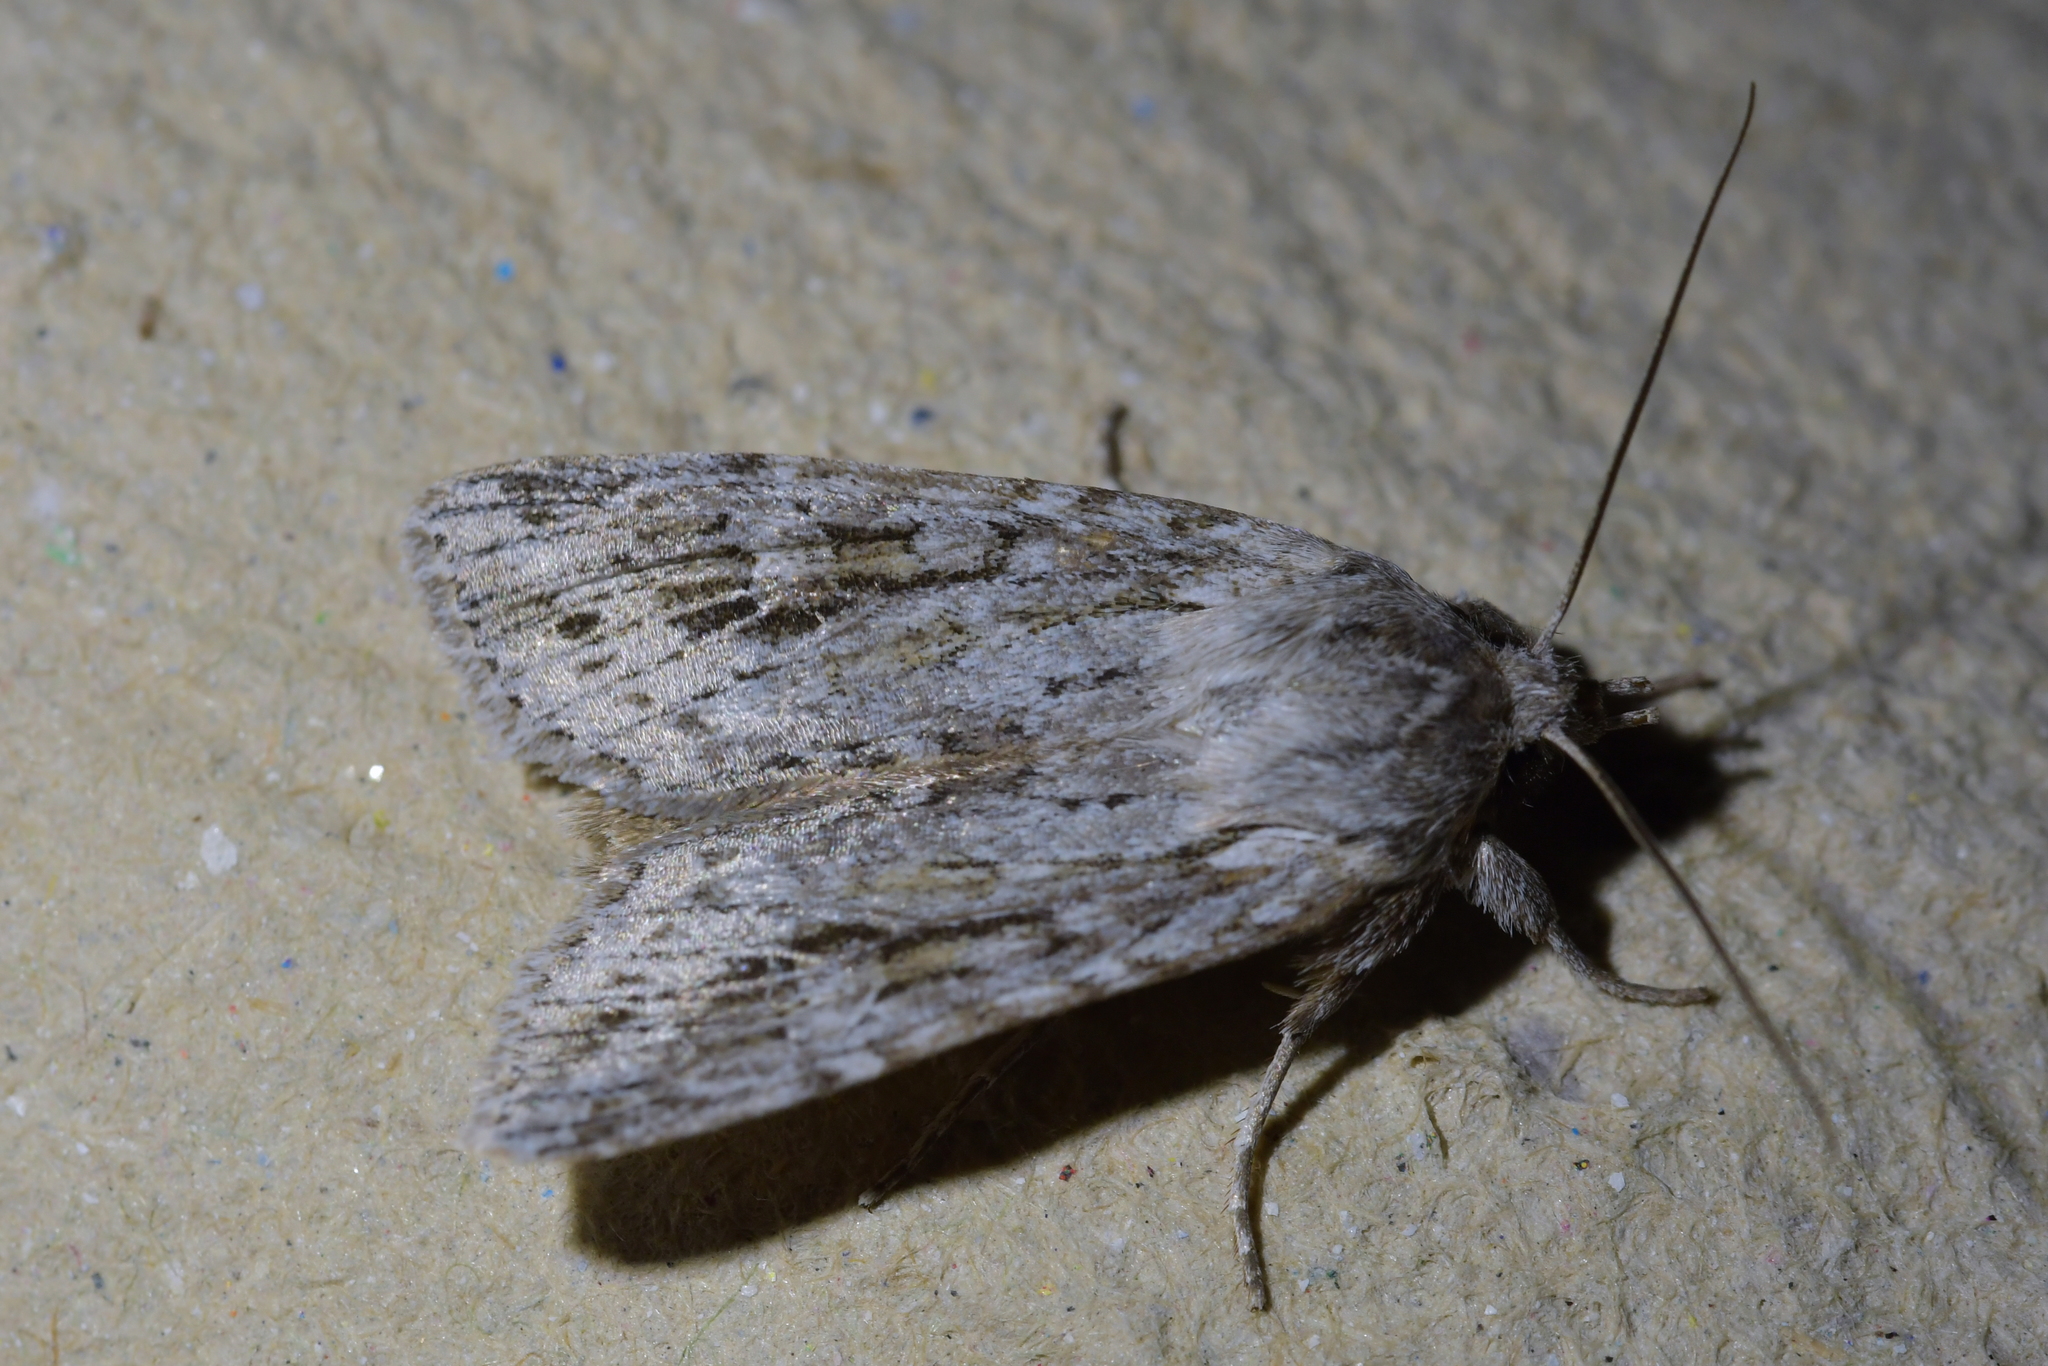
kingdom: Animalia
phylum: Arthropoda
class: Insecta
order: Lepidoptera
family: Noctuidae
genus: Physetica
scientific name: Physetica sequens
